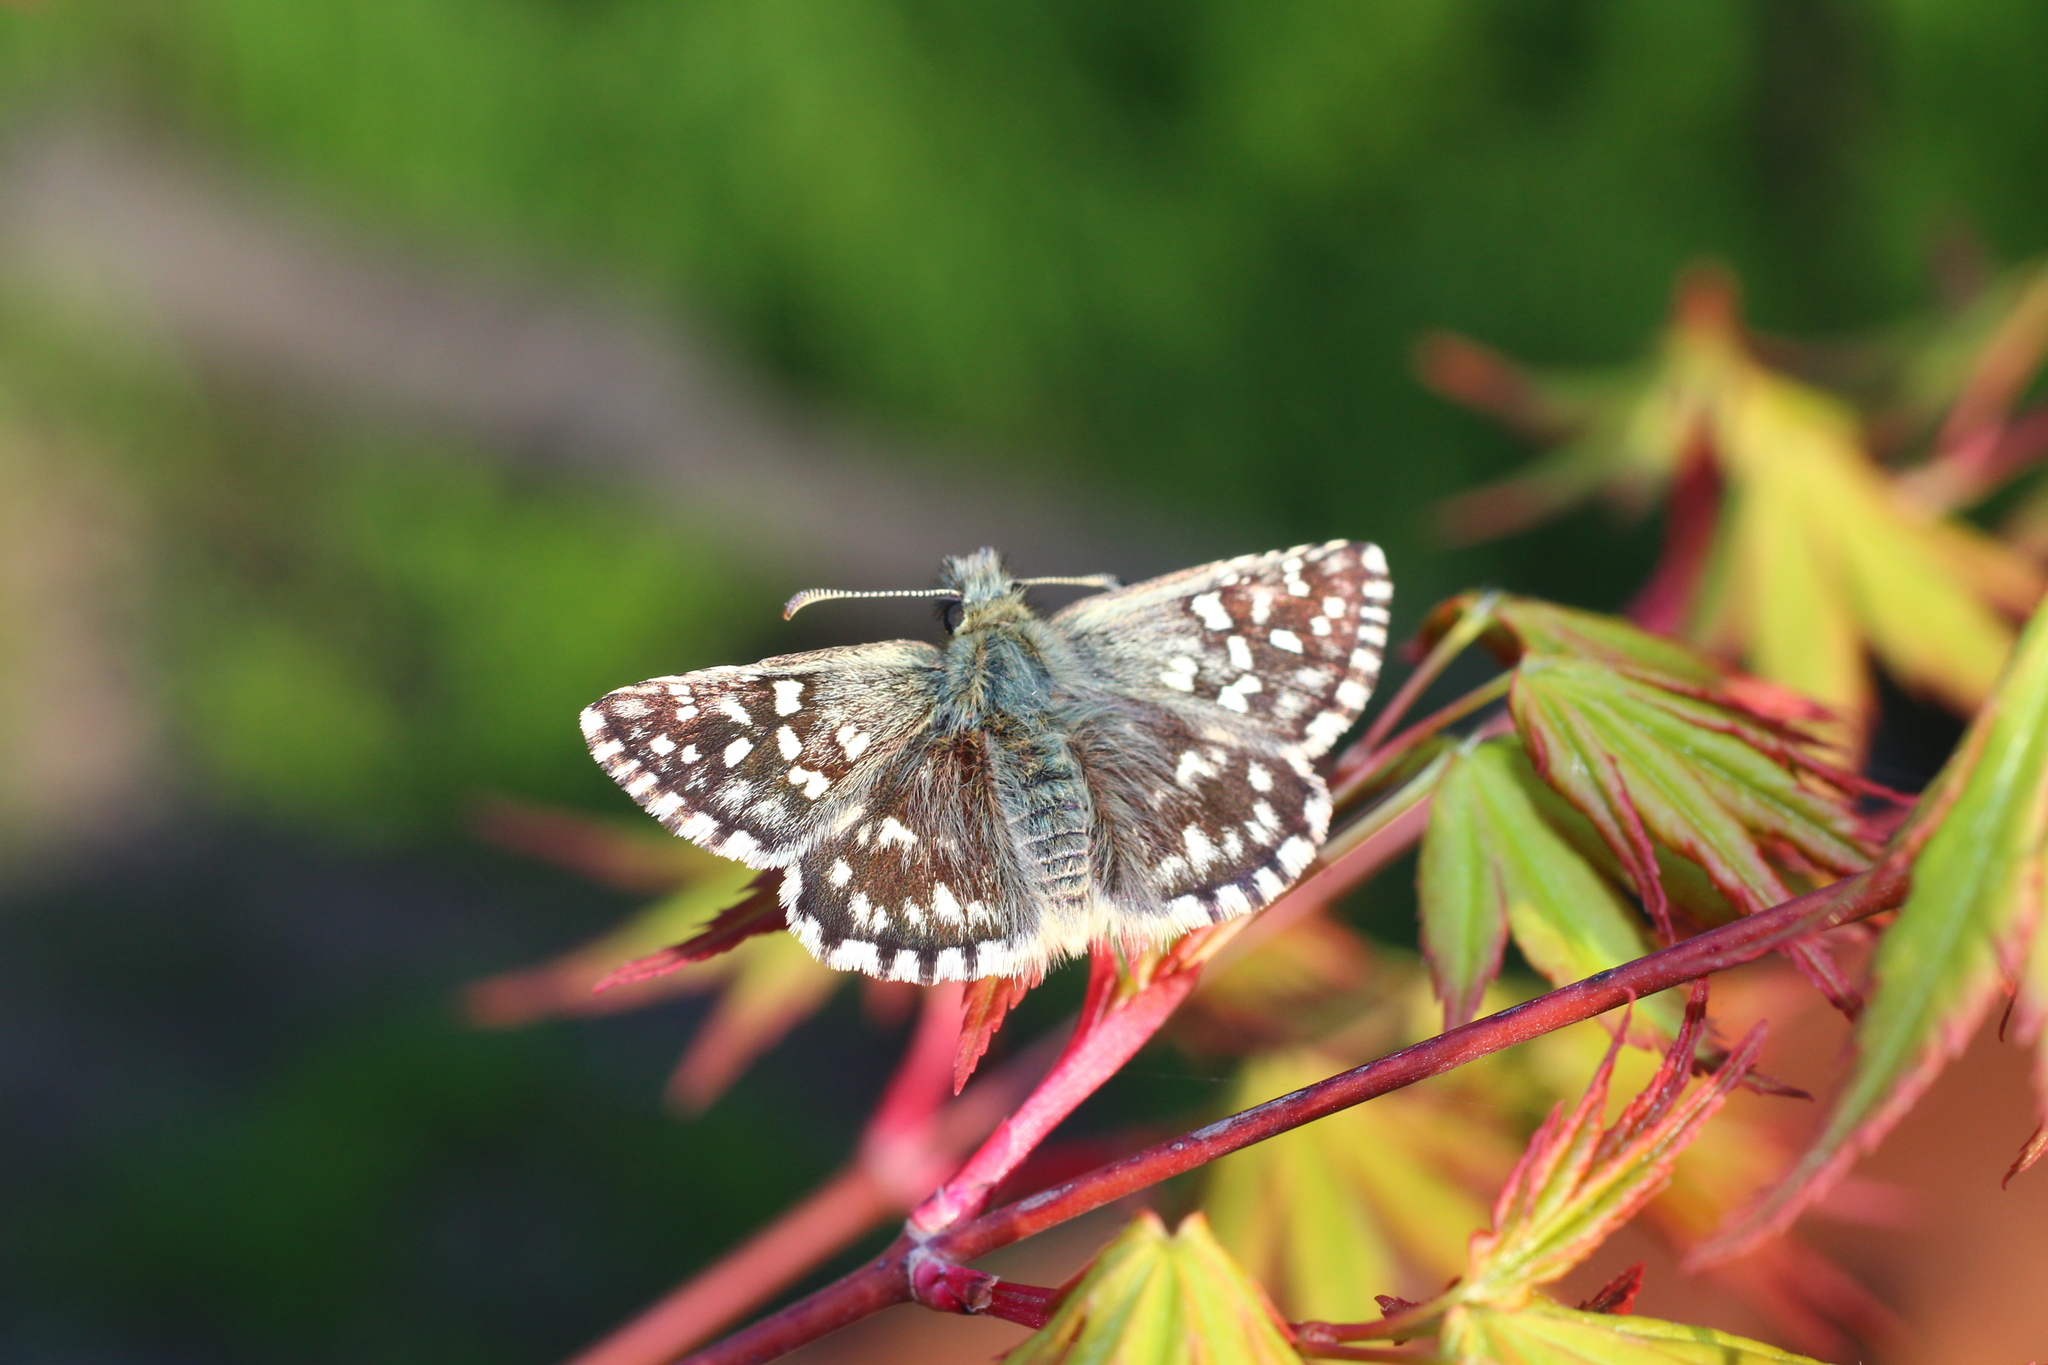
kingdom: Animalia
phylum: Arthropoda
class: Insecta
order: Lepidoptera
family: Hesperiidae
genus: Pyrgus
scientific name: Pyrgus melotis
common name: Aegean skipper
